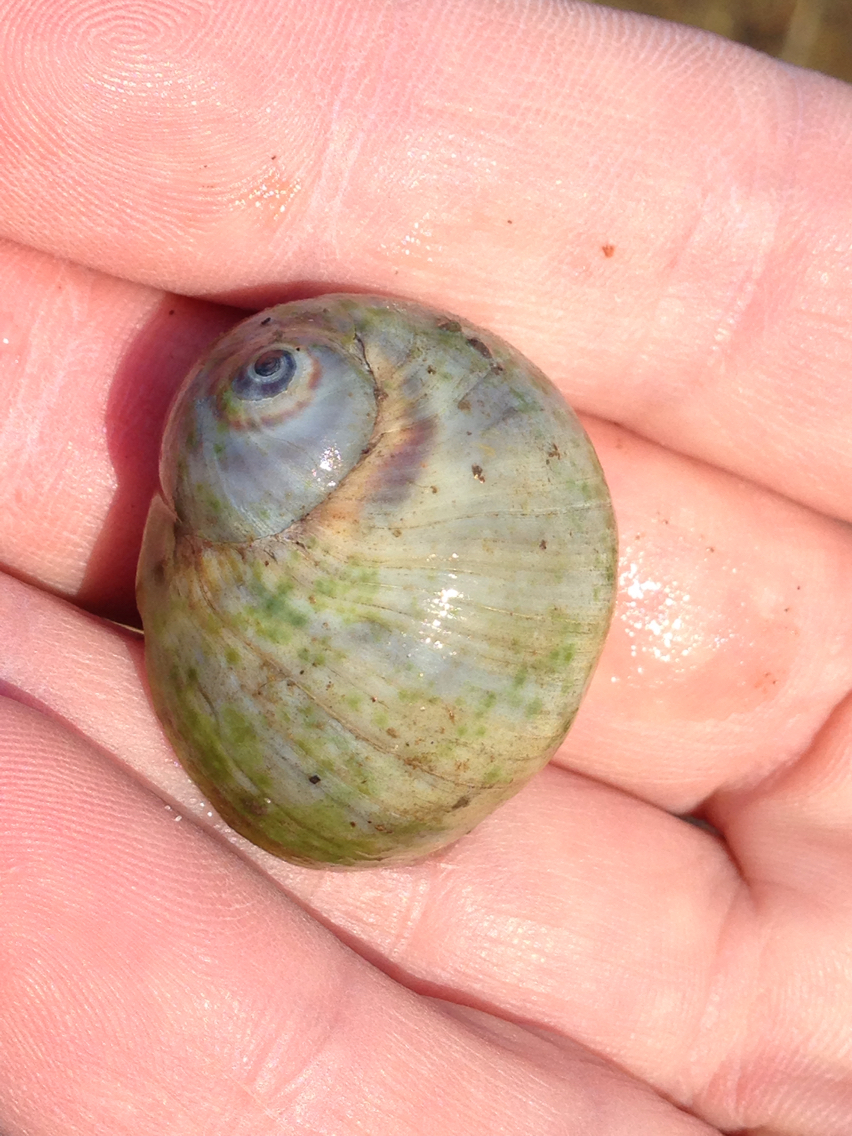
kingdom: Animalia
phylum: Mollusca
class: Gastropoda
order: Littorinimorpha
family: Naticidae
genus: Conuber
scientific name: Conuber melastoma
